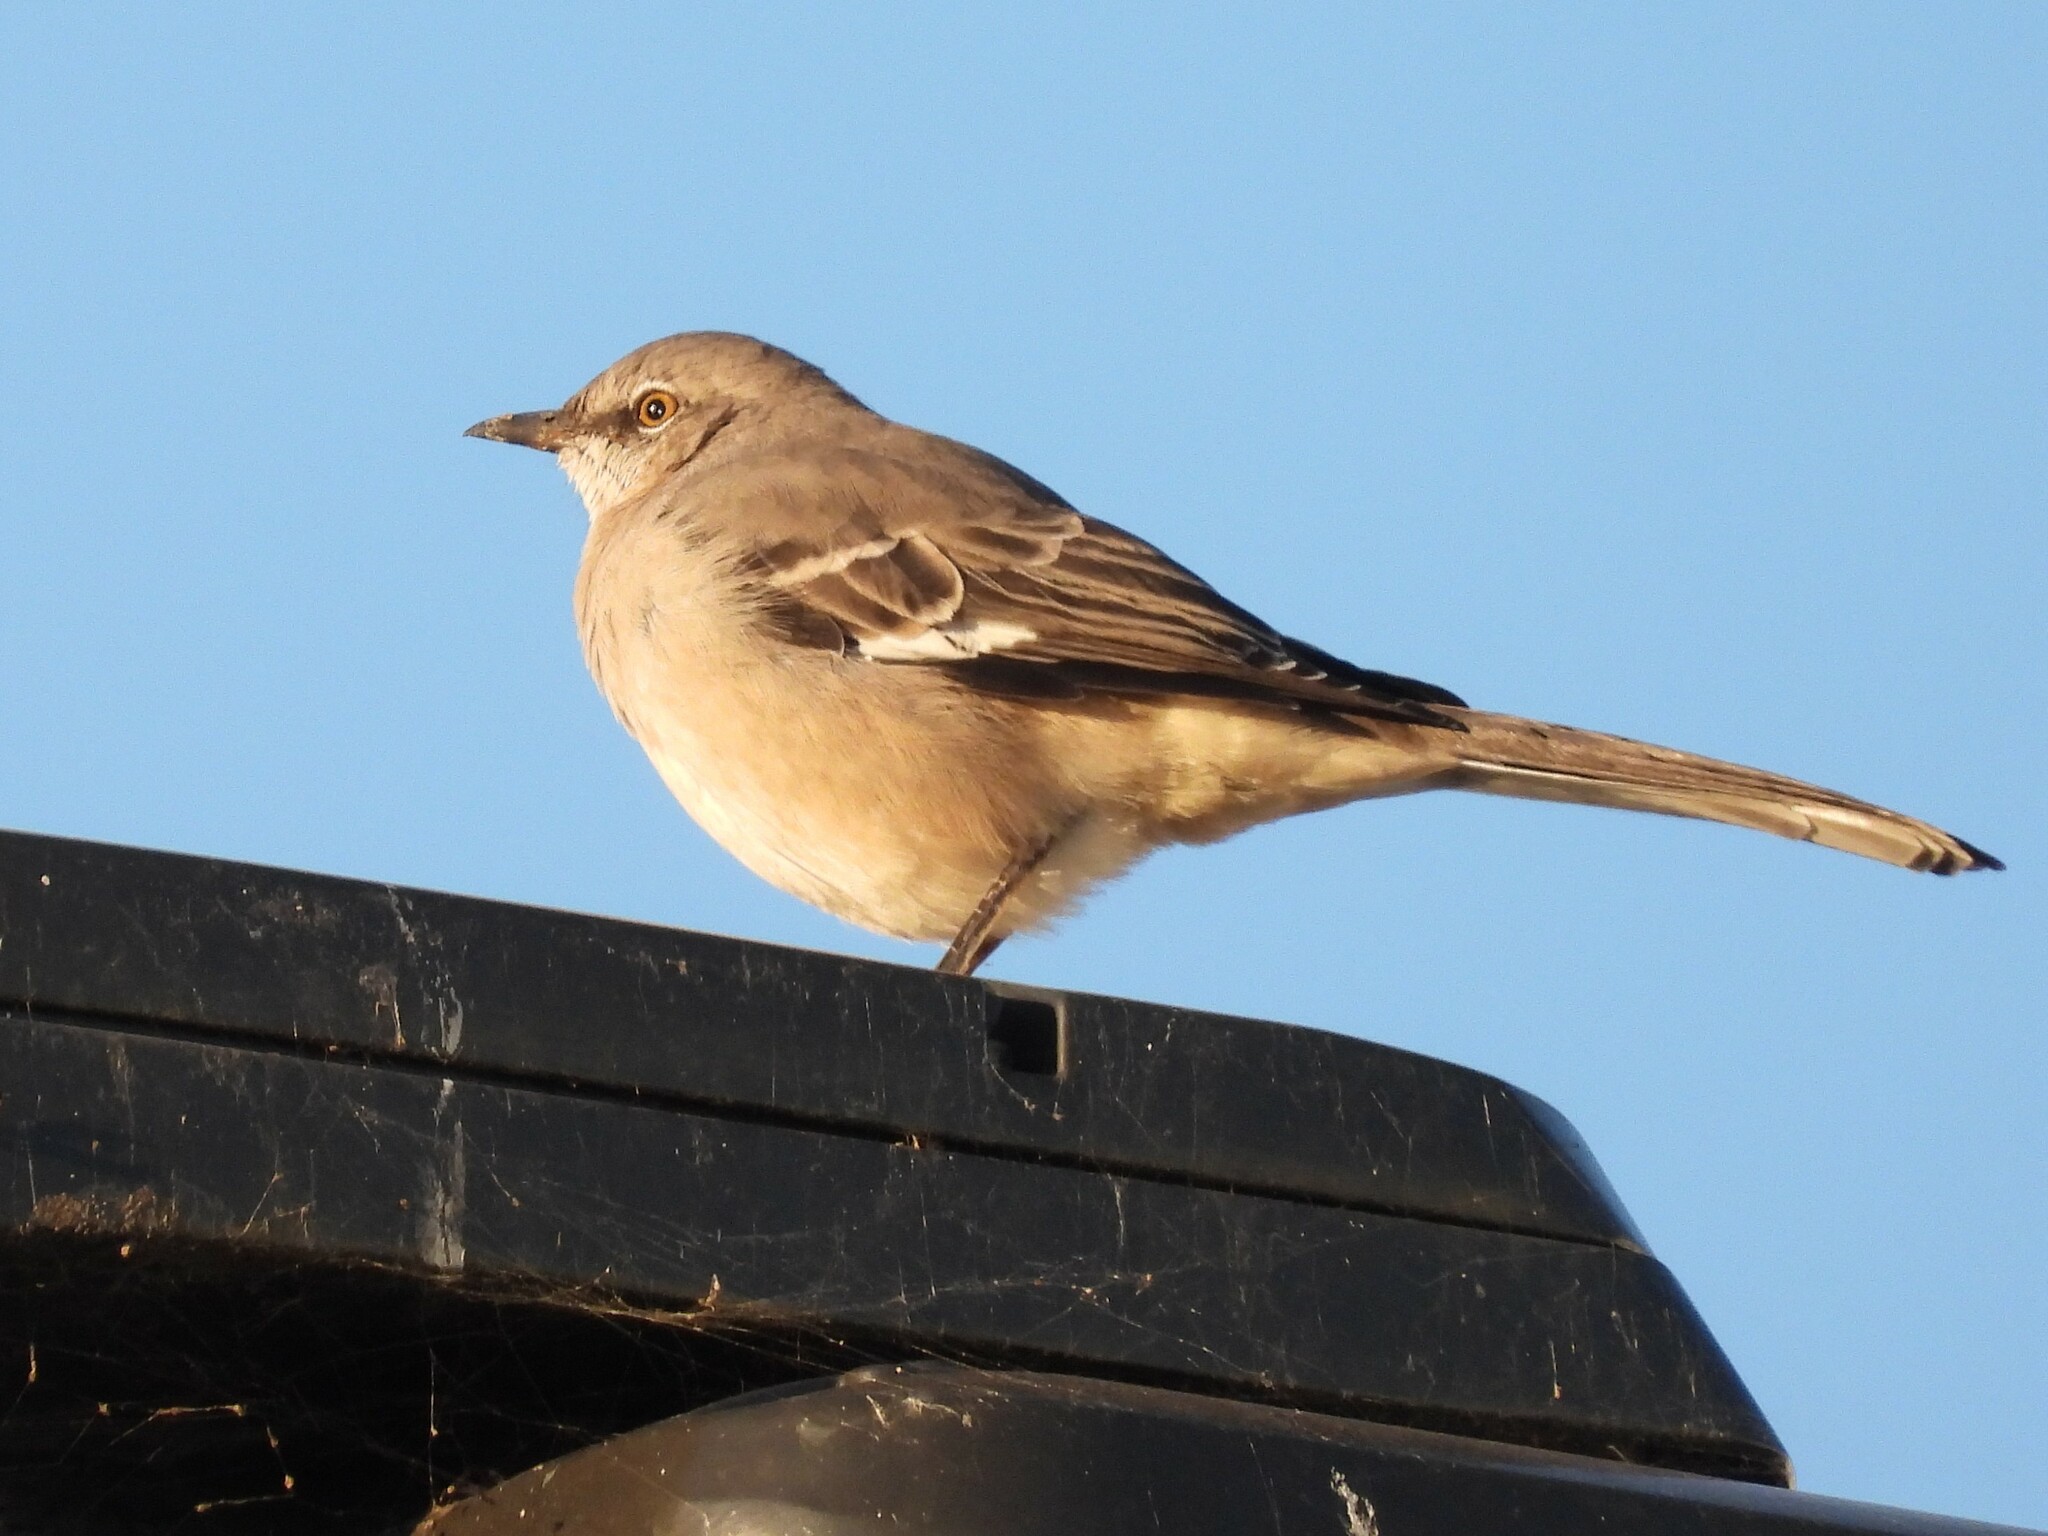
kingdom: Animalia
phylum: Chordata
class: Aves
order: Passeriformes
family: Mimidae
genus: Mimus
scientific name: Mimus polyglottos
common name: Northern mockingbird
